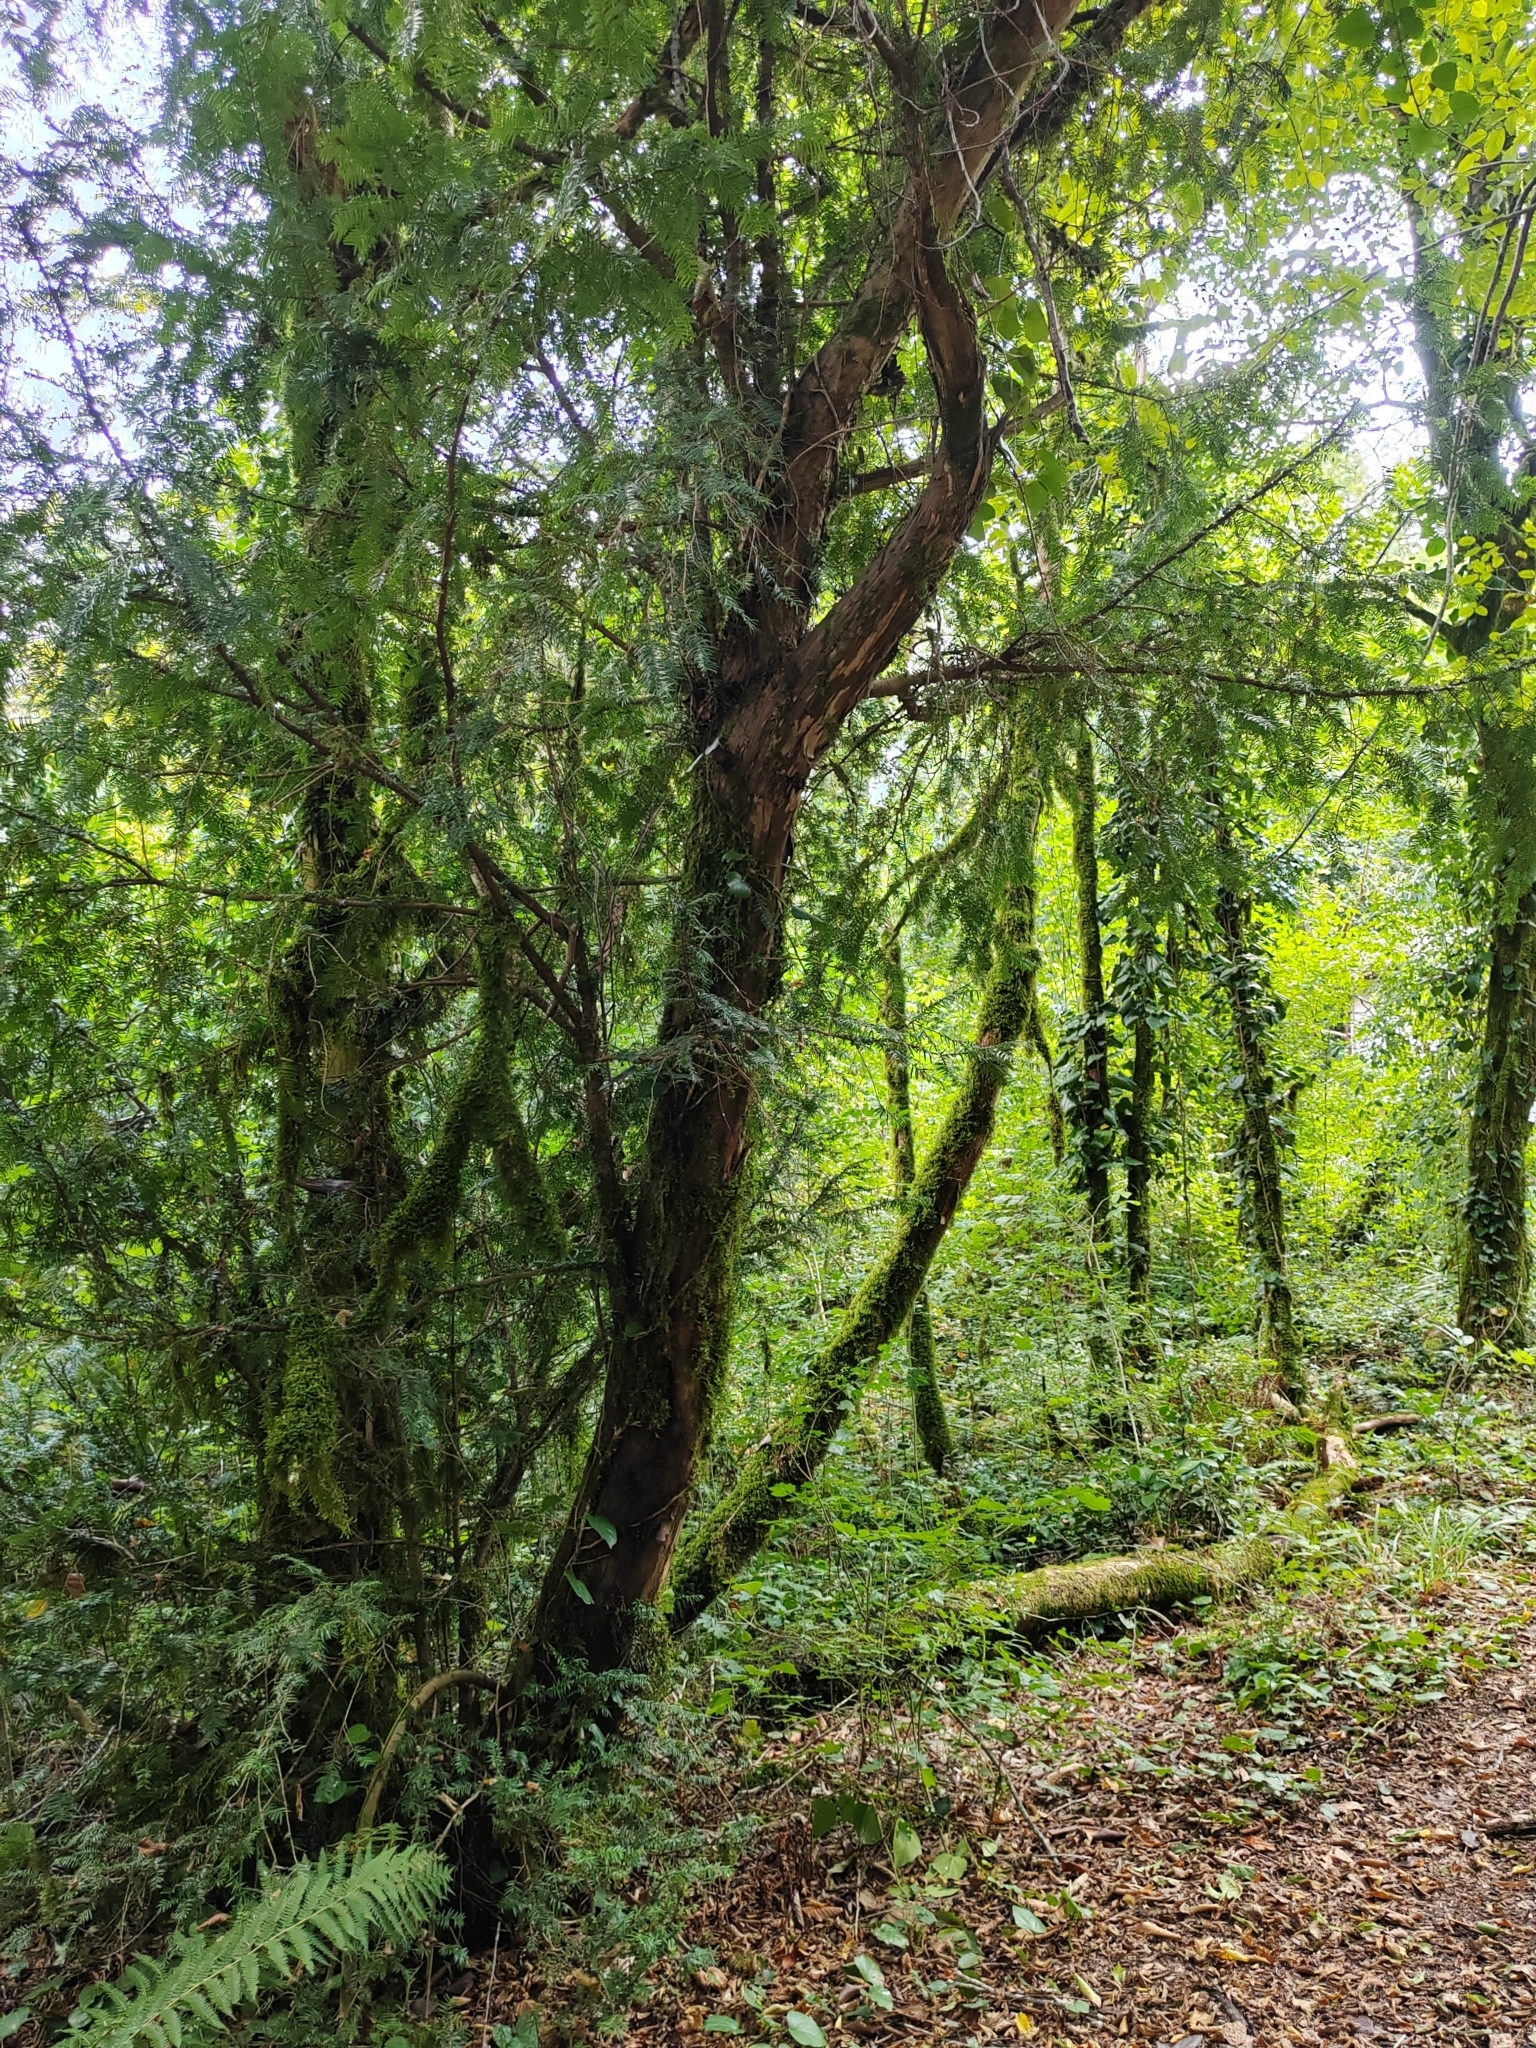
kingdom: Plantae
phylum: Tracheophyta
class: Pinopsida
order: Pinales
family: Taxaceae
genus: Taxus
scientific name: Taxus baccata
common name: Yew
